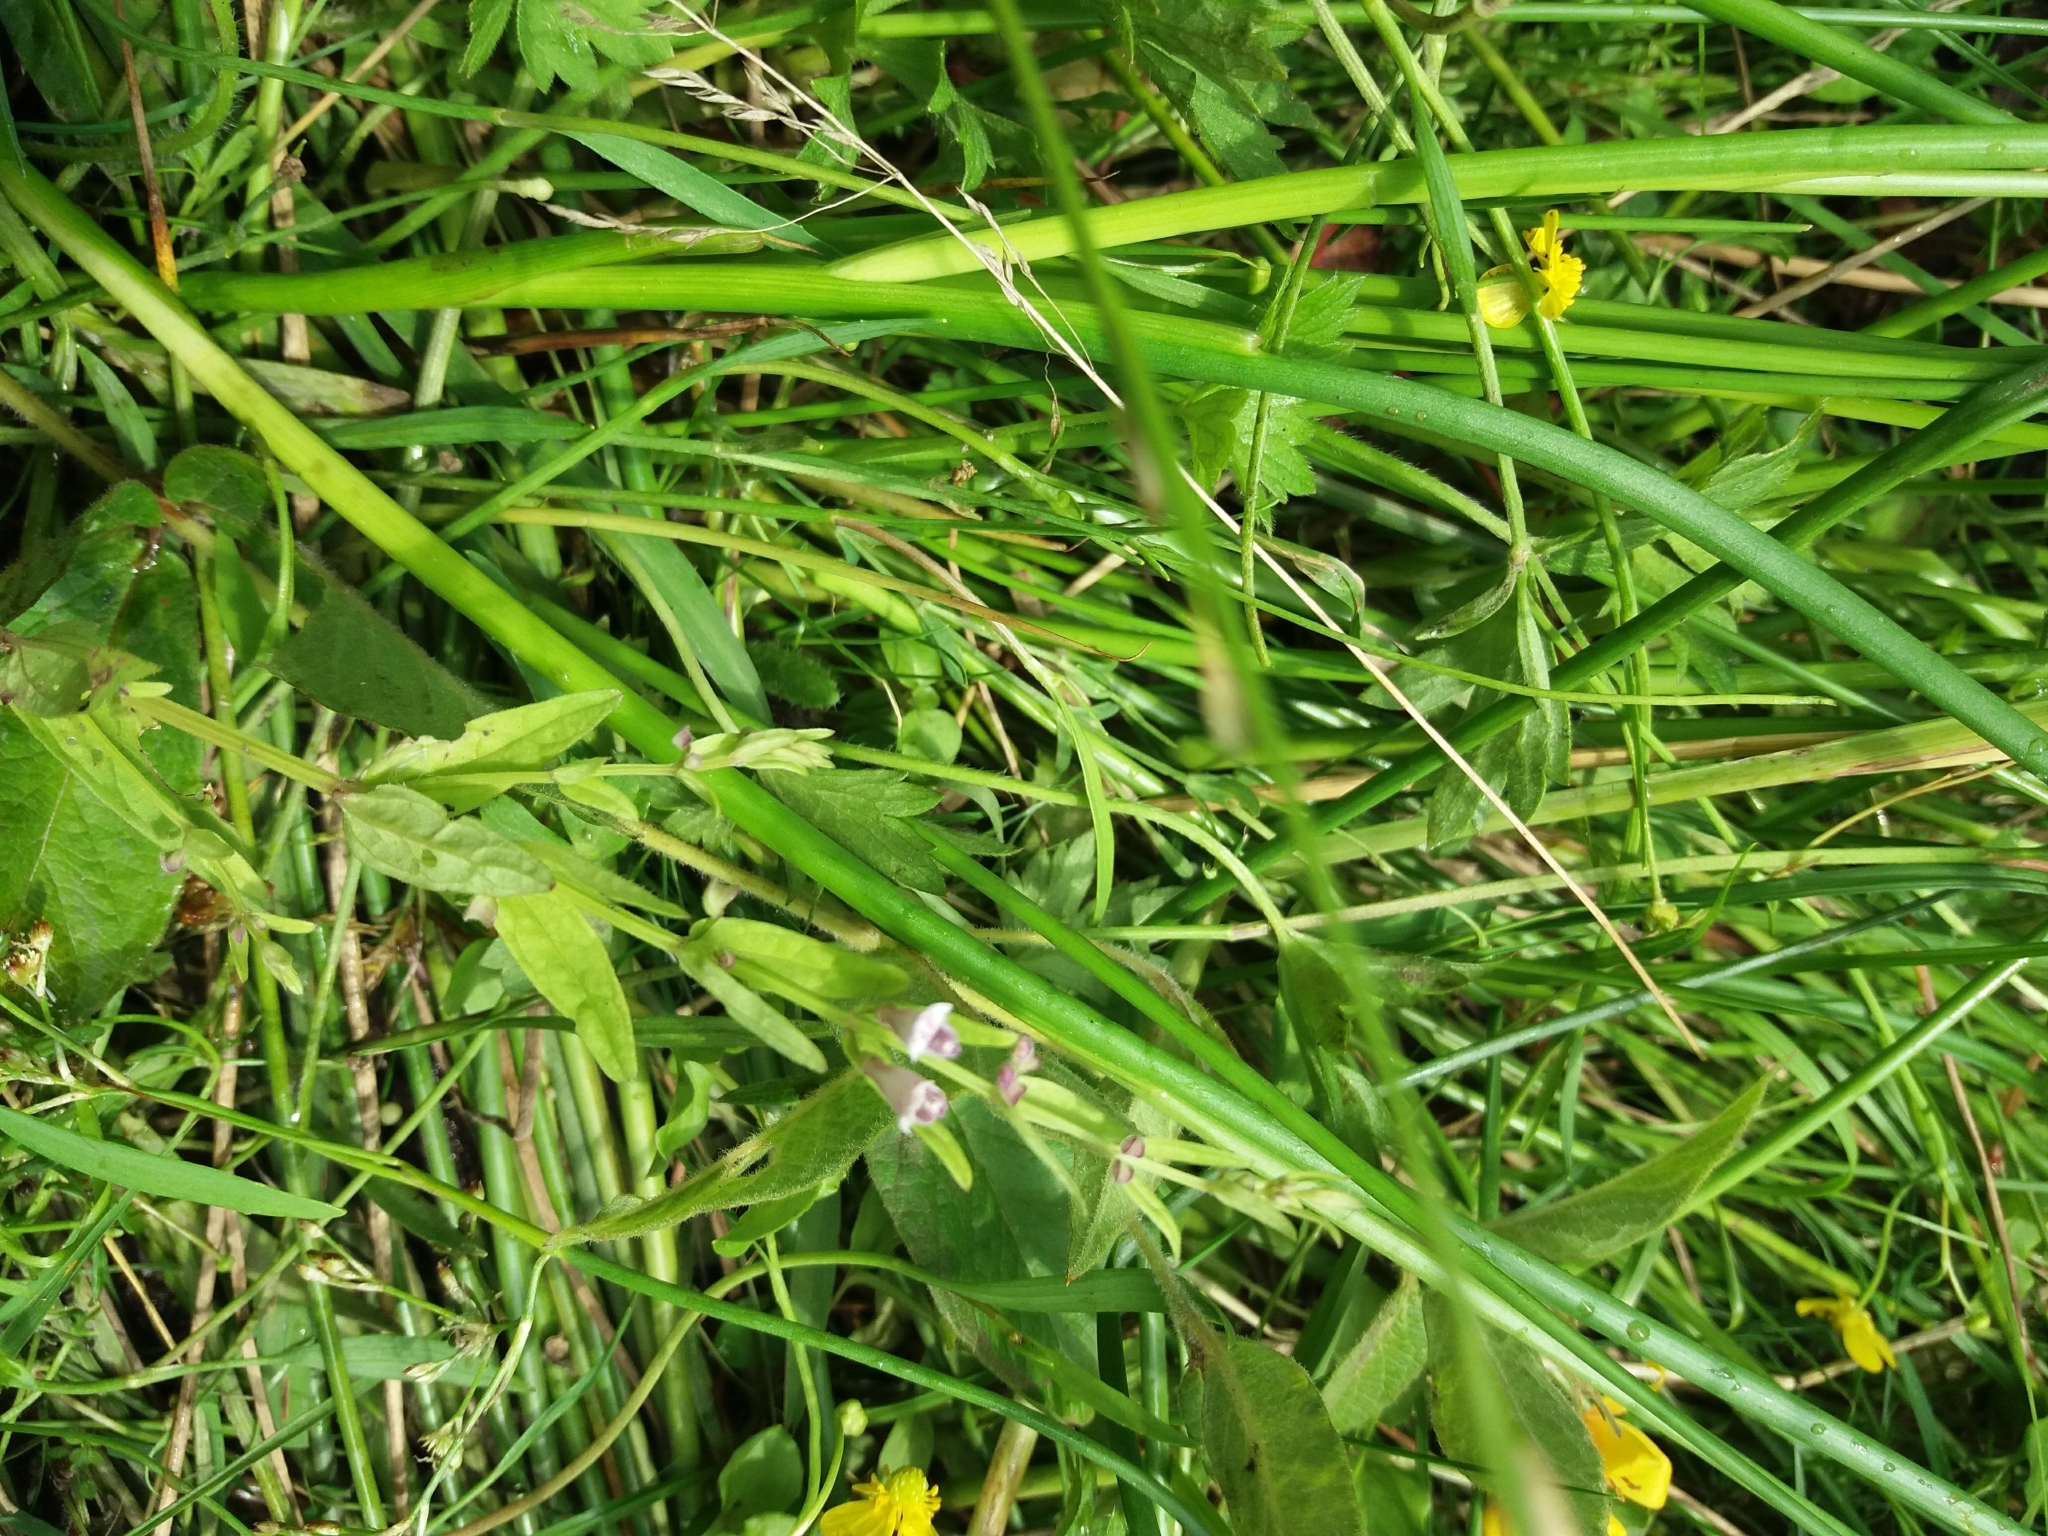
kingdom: Plantae
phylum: Tracheophyta
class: Magnoliopsida
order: Lamiales
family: Lamiaceae
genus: Scutellaria
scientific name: Scutellaria minor
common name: Lesser skullcap
